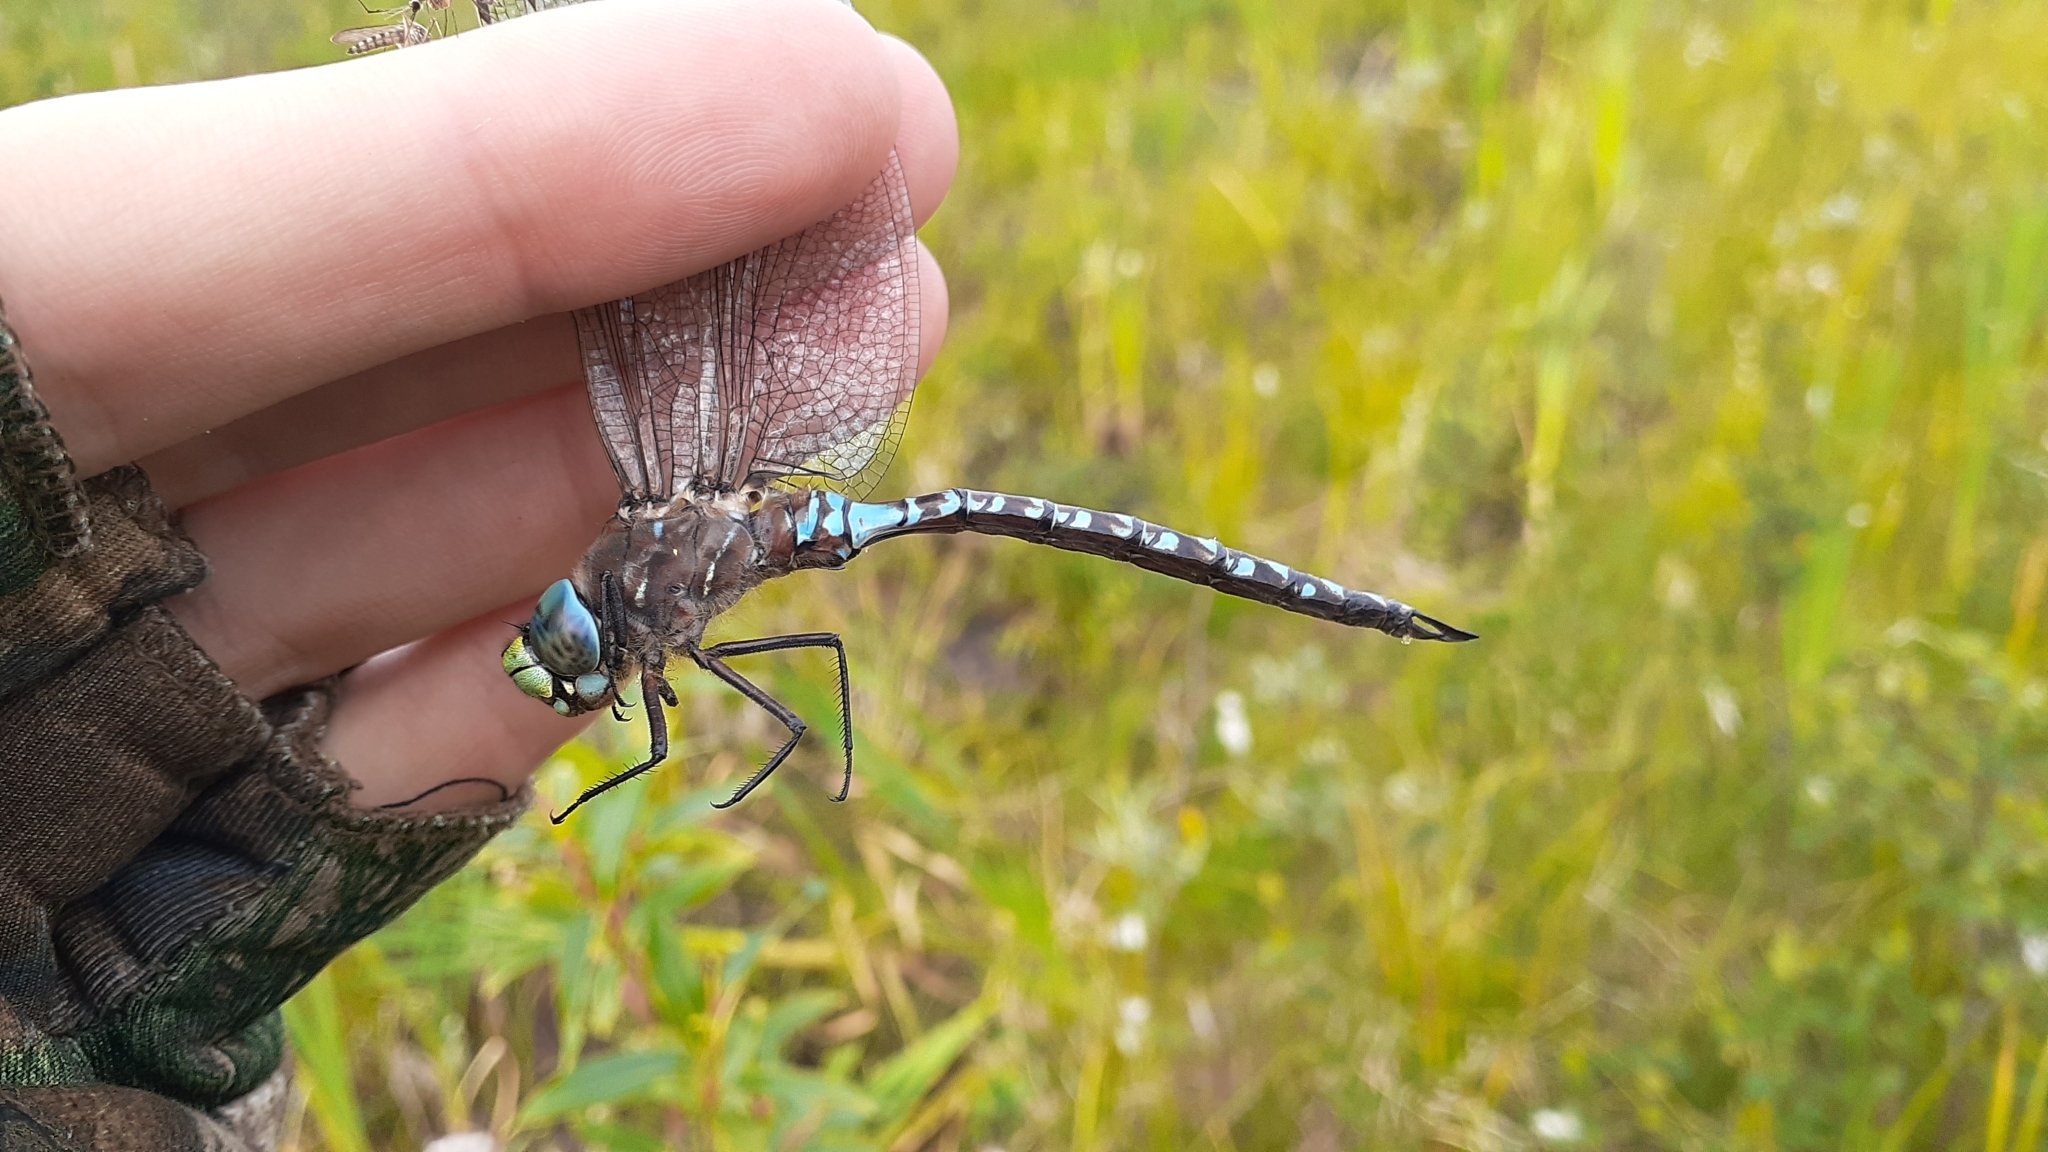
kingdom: Animalia
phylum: Arthropoda
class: Insecta
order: Odonata
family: Aeshnidae
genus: Aeshna
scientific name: Aeshna interrupta
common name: Variable darner
